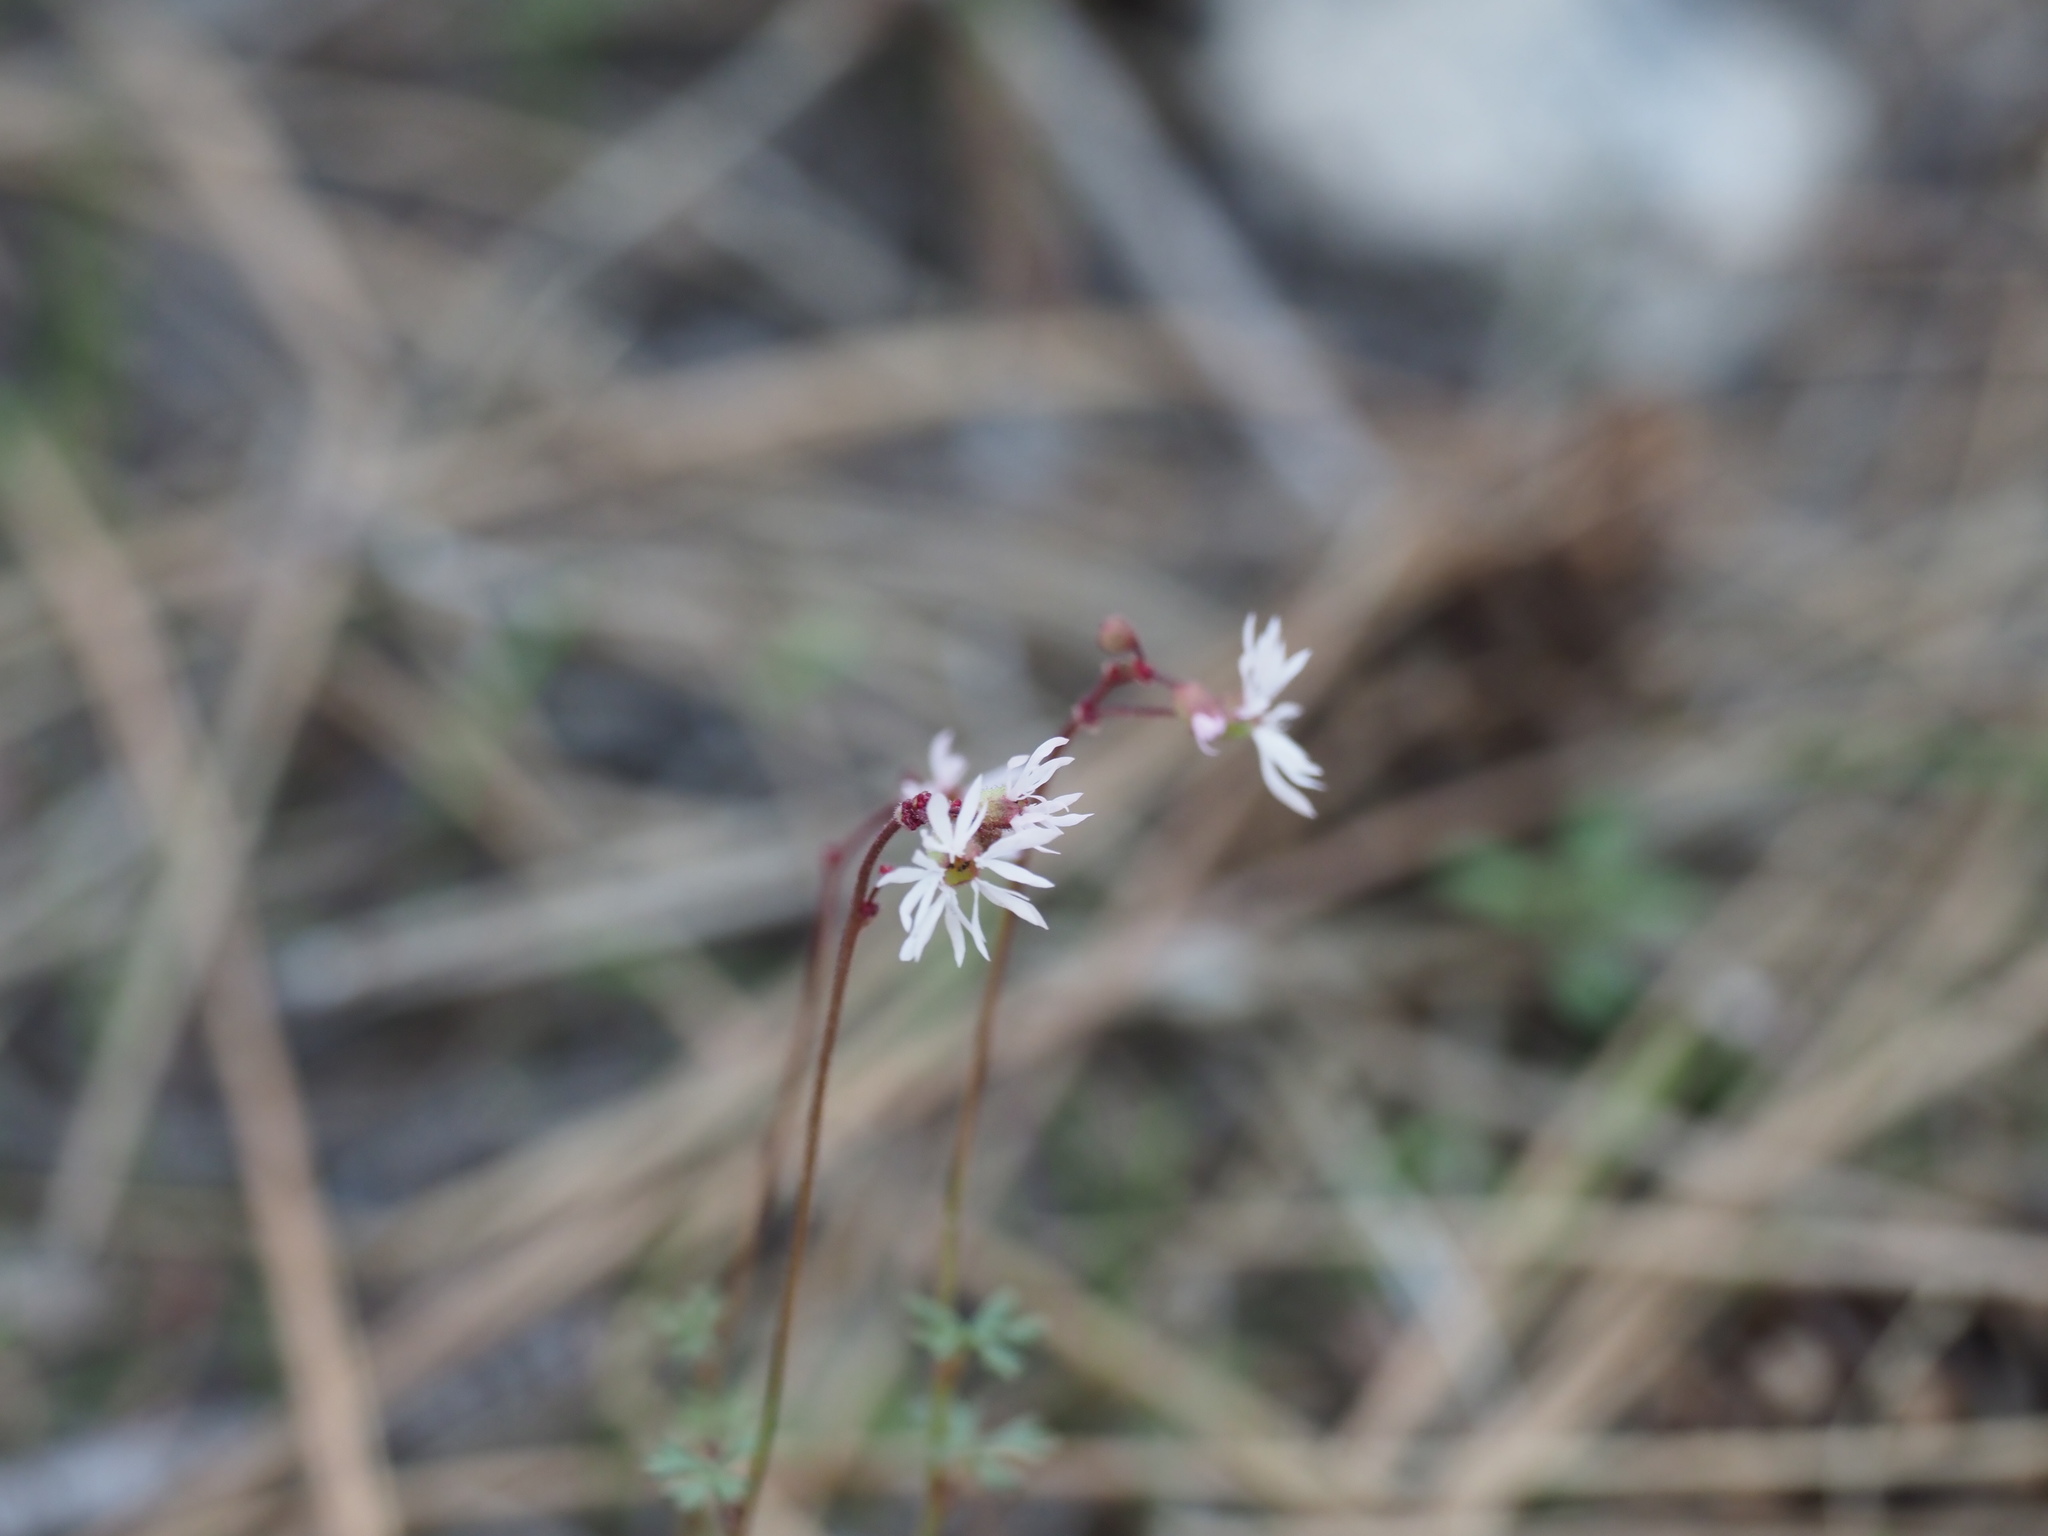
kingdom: Plantae
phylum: Tracheophyta
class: Magnoliopsida
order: Saxifragales
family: Saxifragaceae
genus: Lithophragma
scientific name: Lithophragma glabrum
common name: Bulbous prairie-star
